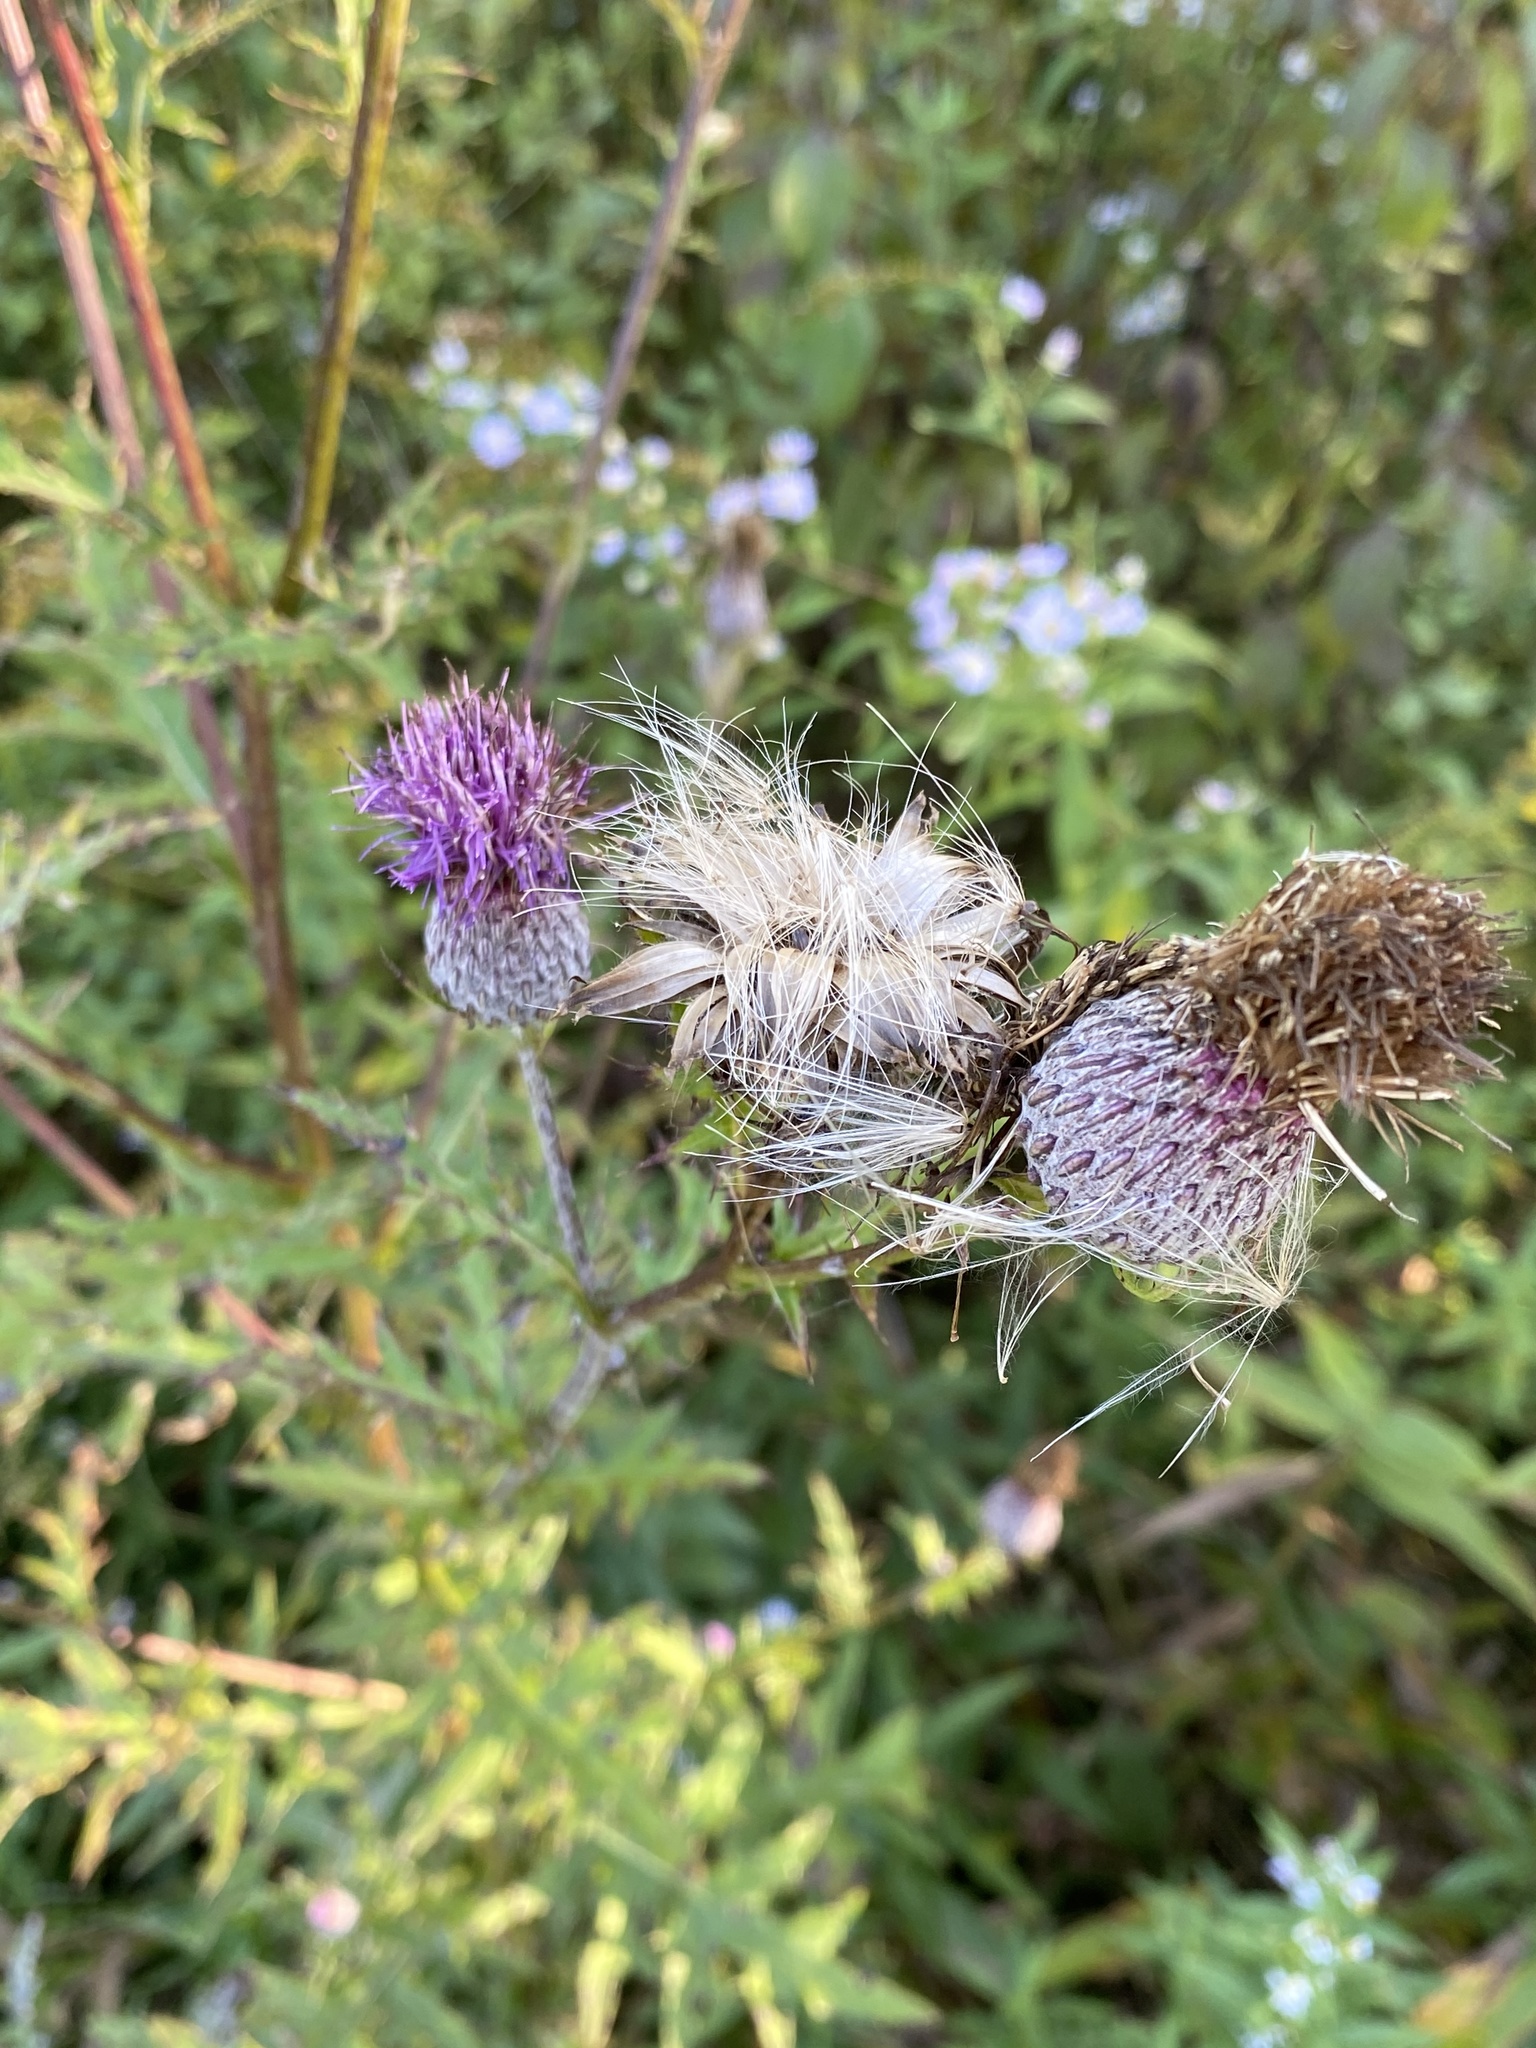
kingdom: Plantae
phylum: Tracheophyta
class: Magnoliopsida
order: Asterales
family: Asteraceae
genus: Cirsium
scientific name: Cirsium muticum
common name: Dunce-nettle
